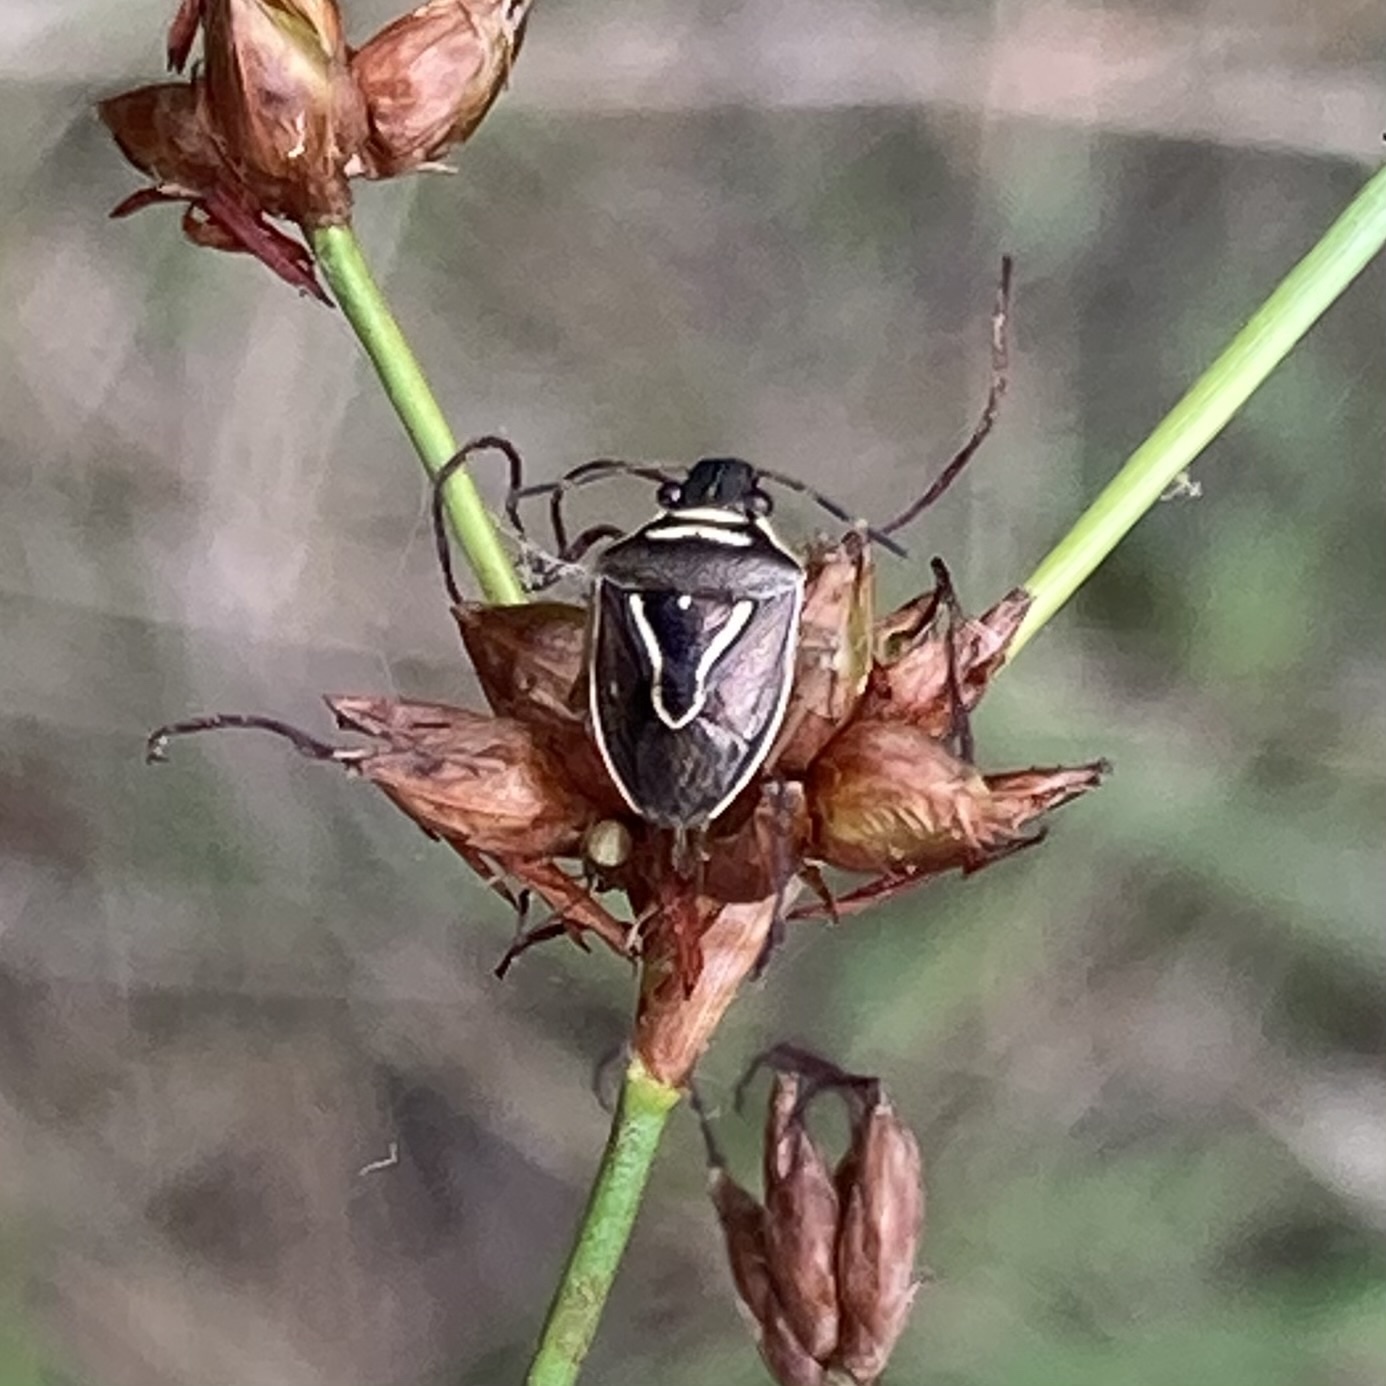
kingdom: Animalia
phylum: Arthropoda
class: Insecta
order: Hemiptera
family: Pentatomidae
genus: Mormidea
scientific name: Mormidea lugens
